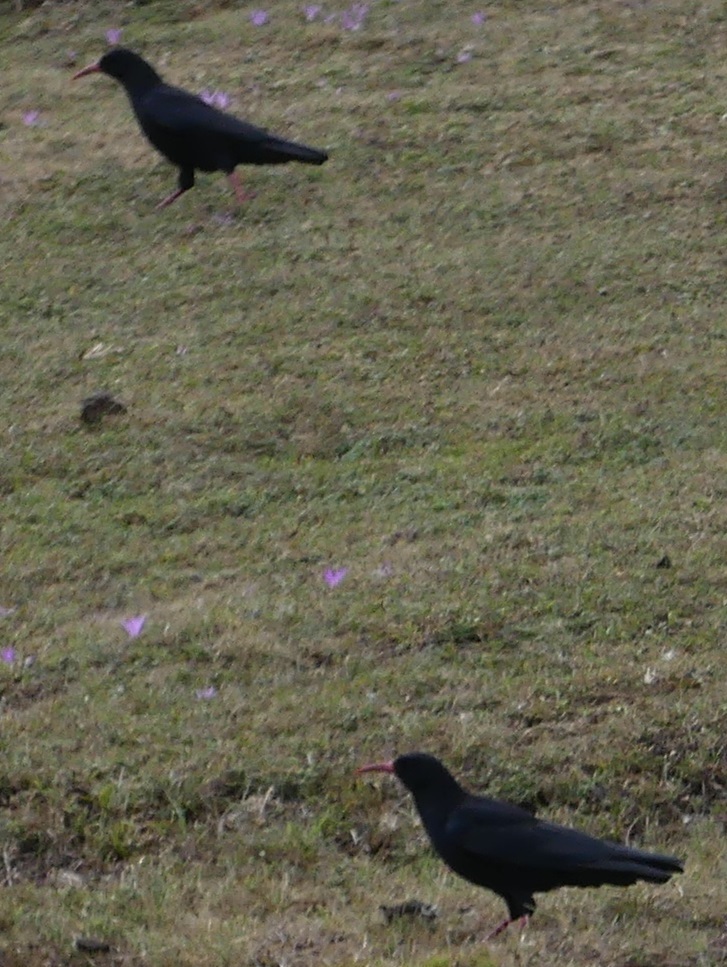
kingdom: Animalia
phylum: Chordata
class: Aves
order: Passeriformes
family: Corvidae
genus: Pyrrhocorax
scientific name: Pyrrhocorax pyrrhocorax
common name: Red-billed chough
